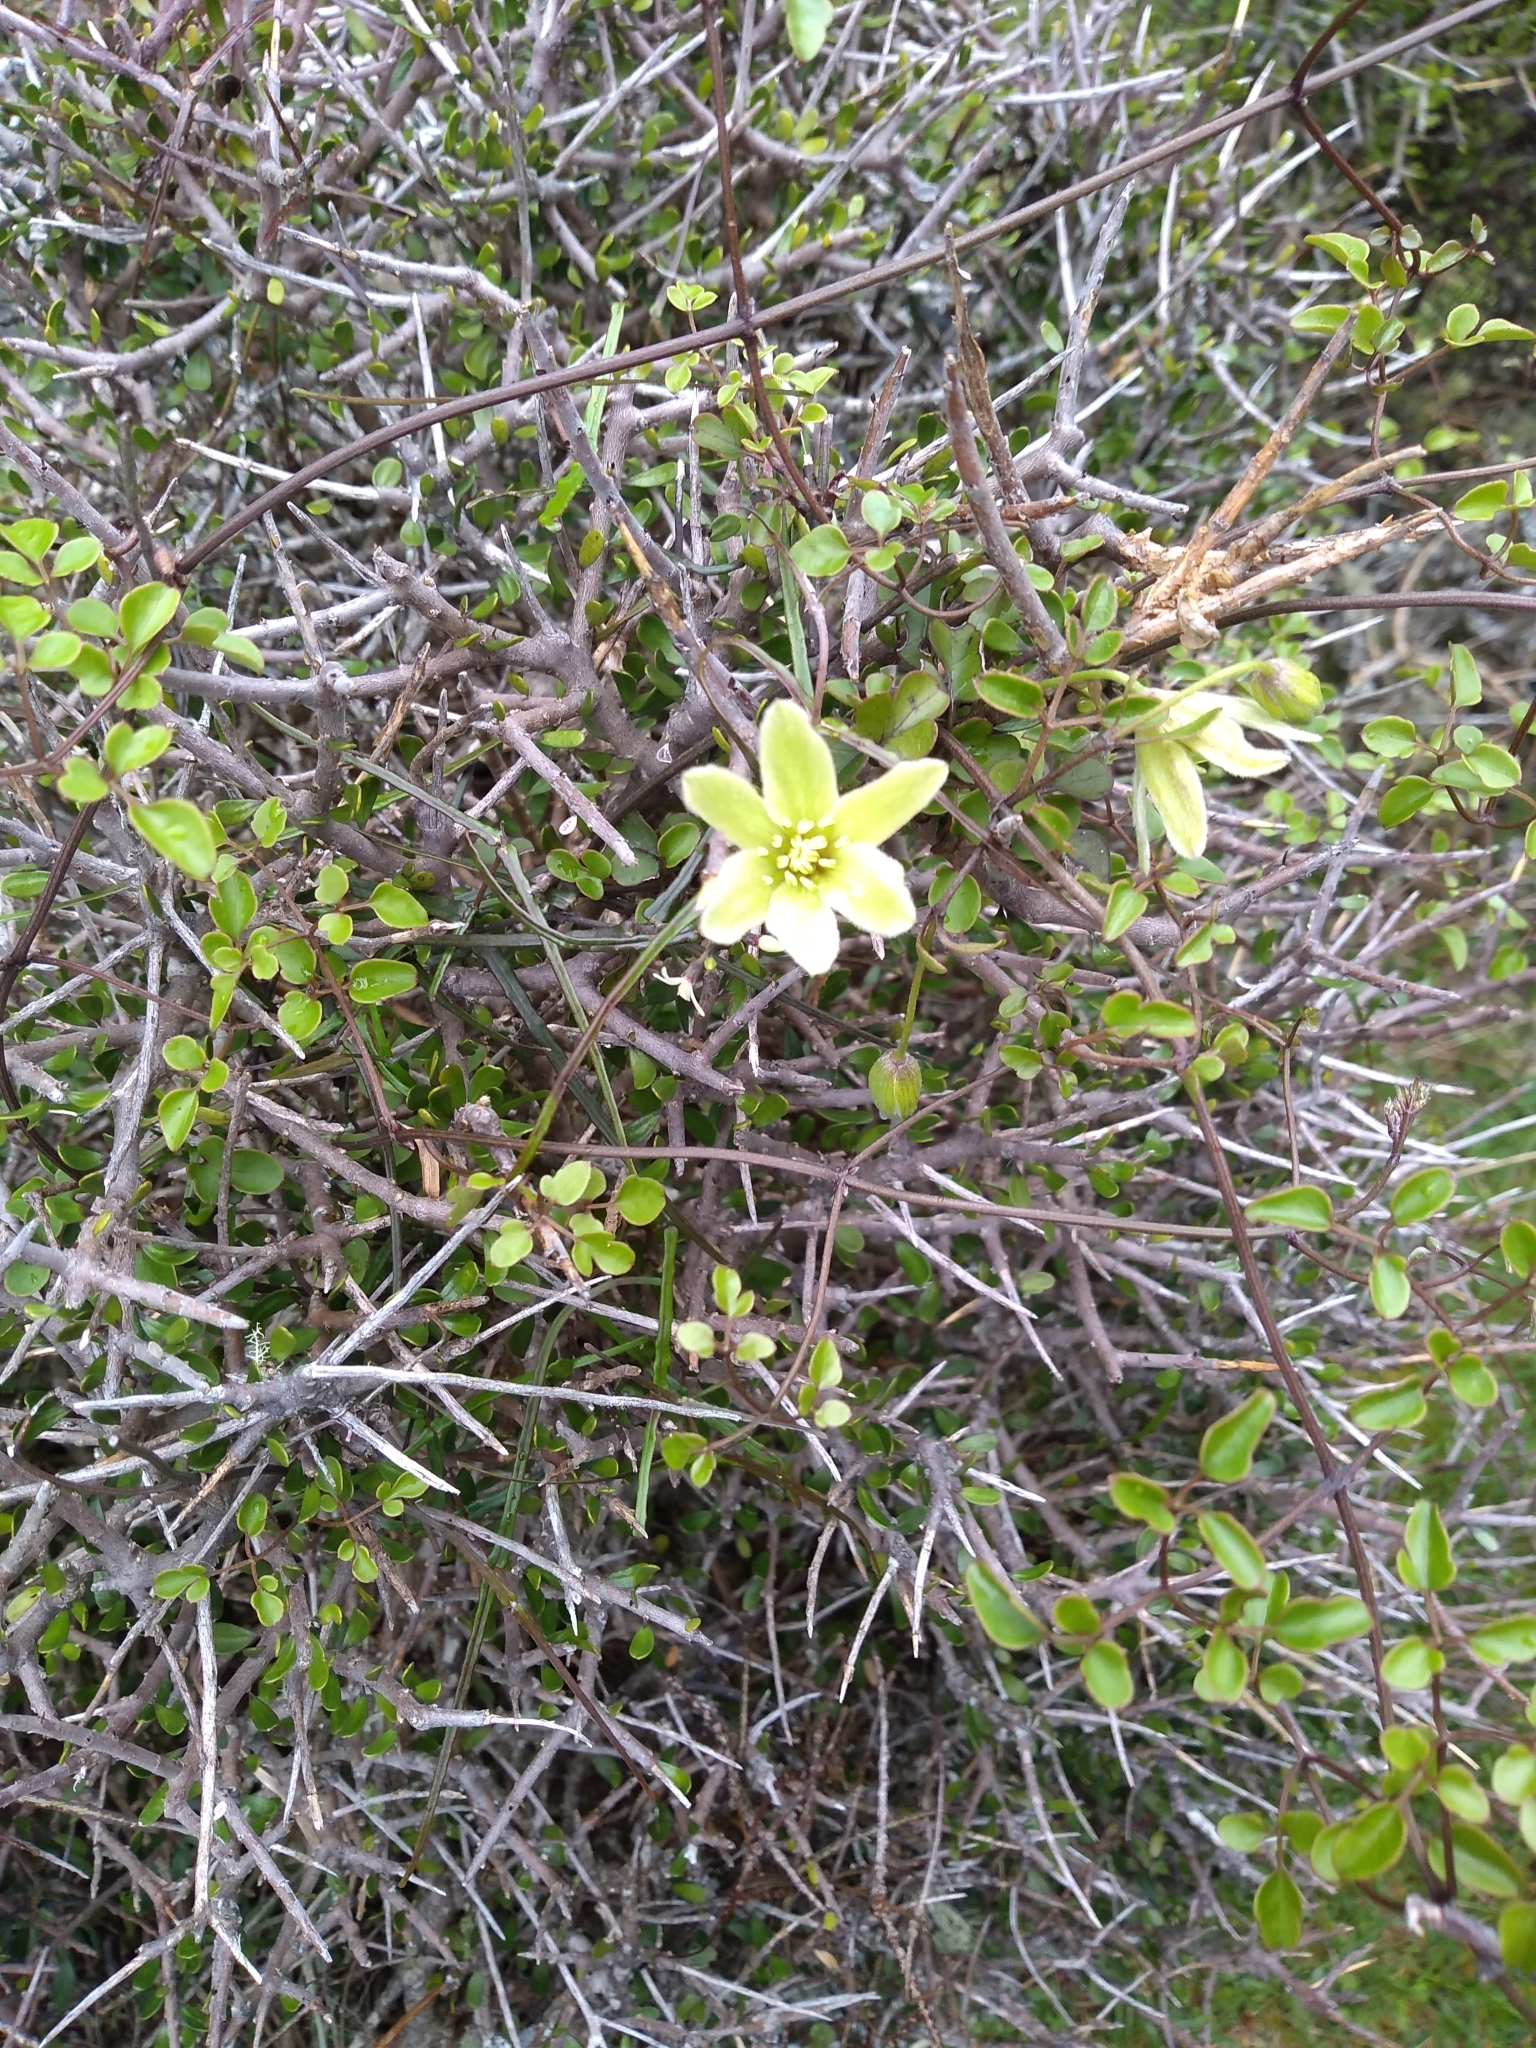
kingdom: Plantae
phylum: Tracheophyta
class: Magnoliopsida
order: Ranunculales
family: Ranunculaceae
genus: Clematis
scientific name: Clematis forsteri
